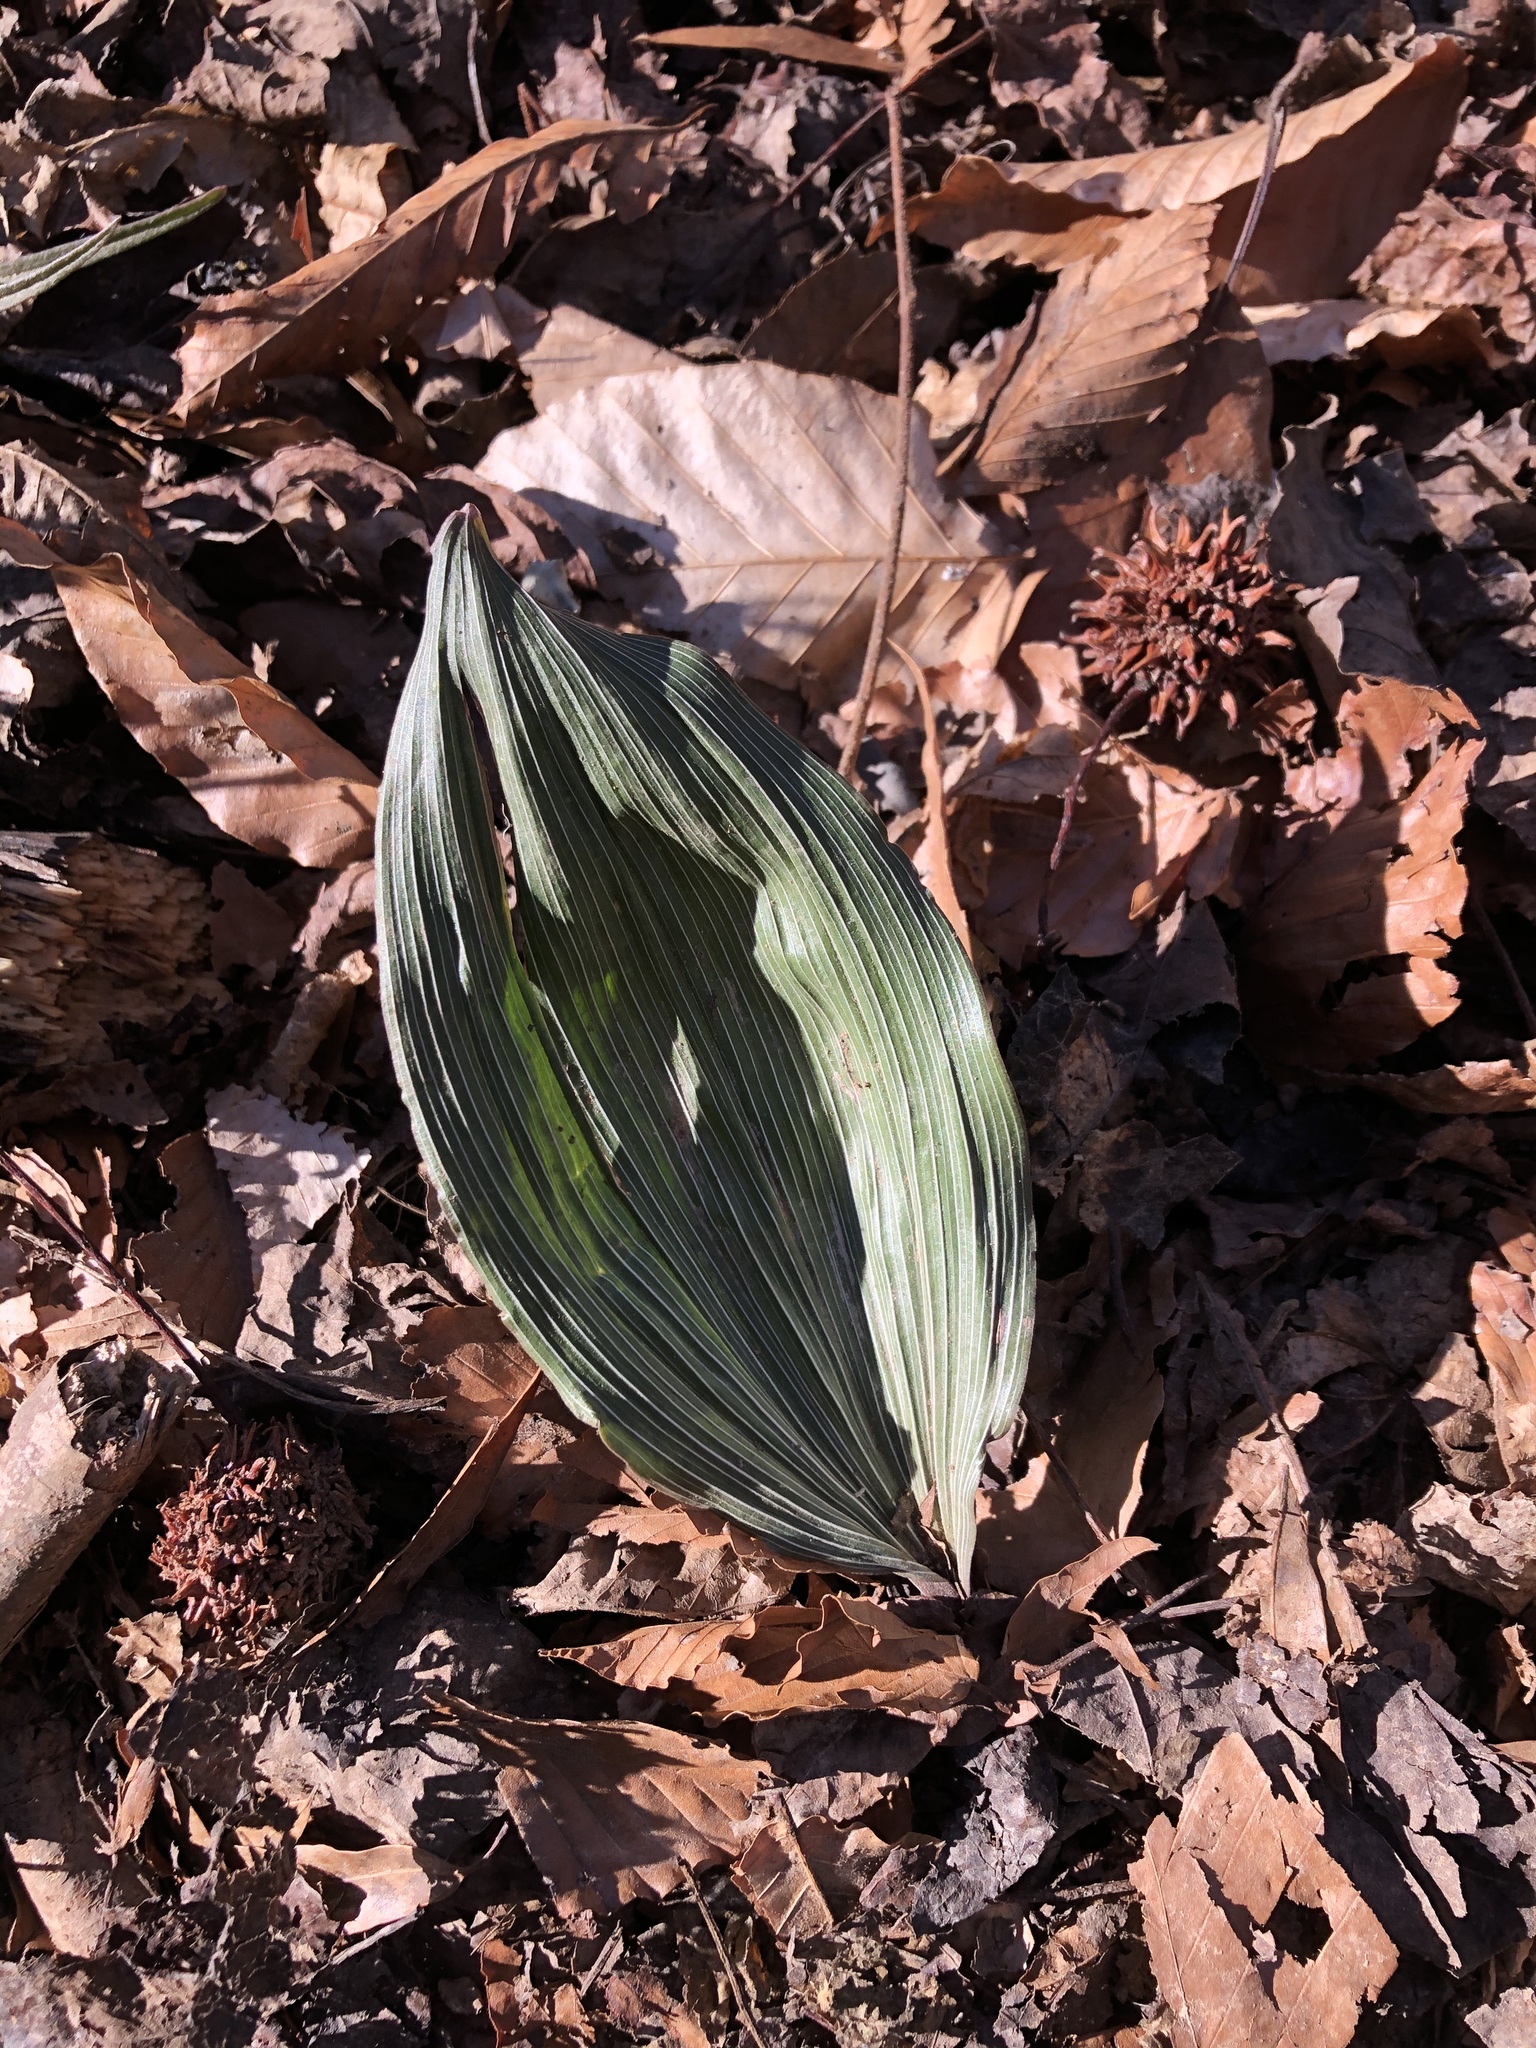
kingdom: Plantae
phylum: Tracheophyta
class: Liliopsida
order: Asparagales
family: Orchidaceae
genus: Aplectrum
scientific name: Aplectrum hyemale
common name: Adam-and-eve
